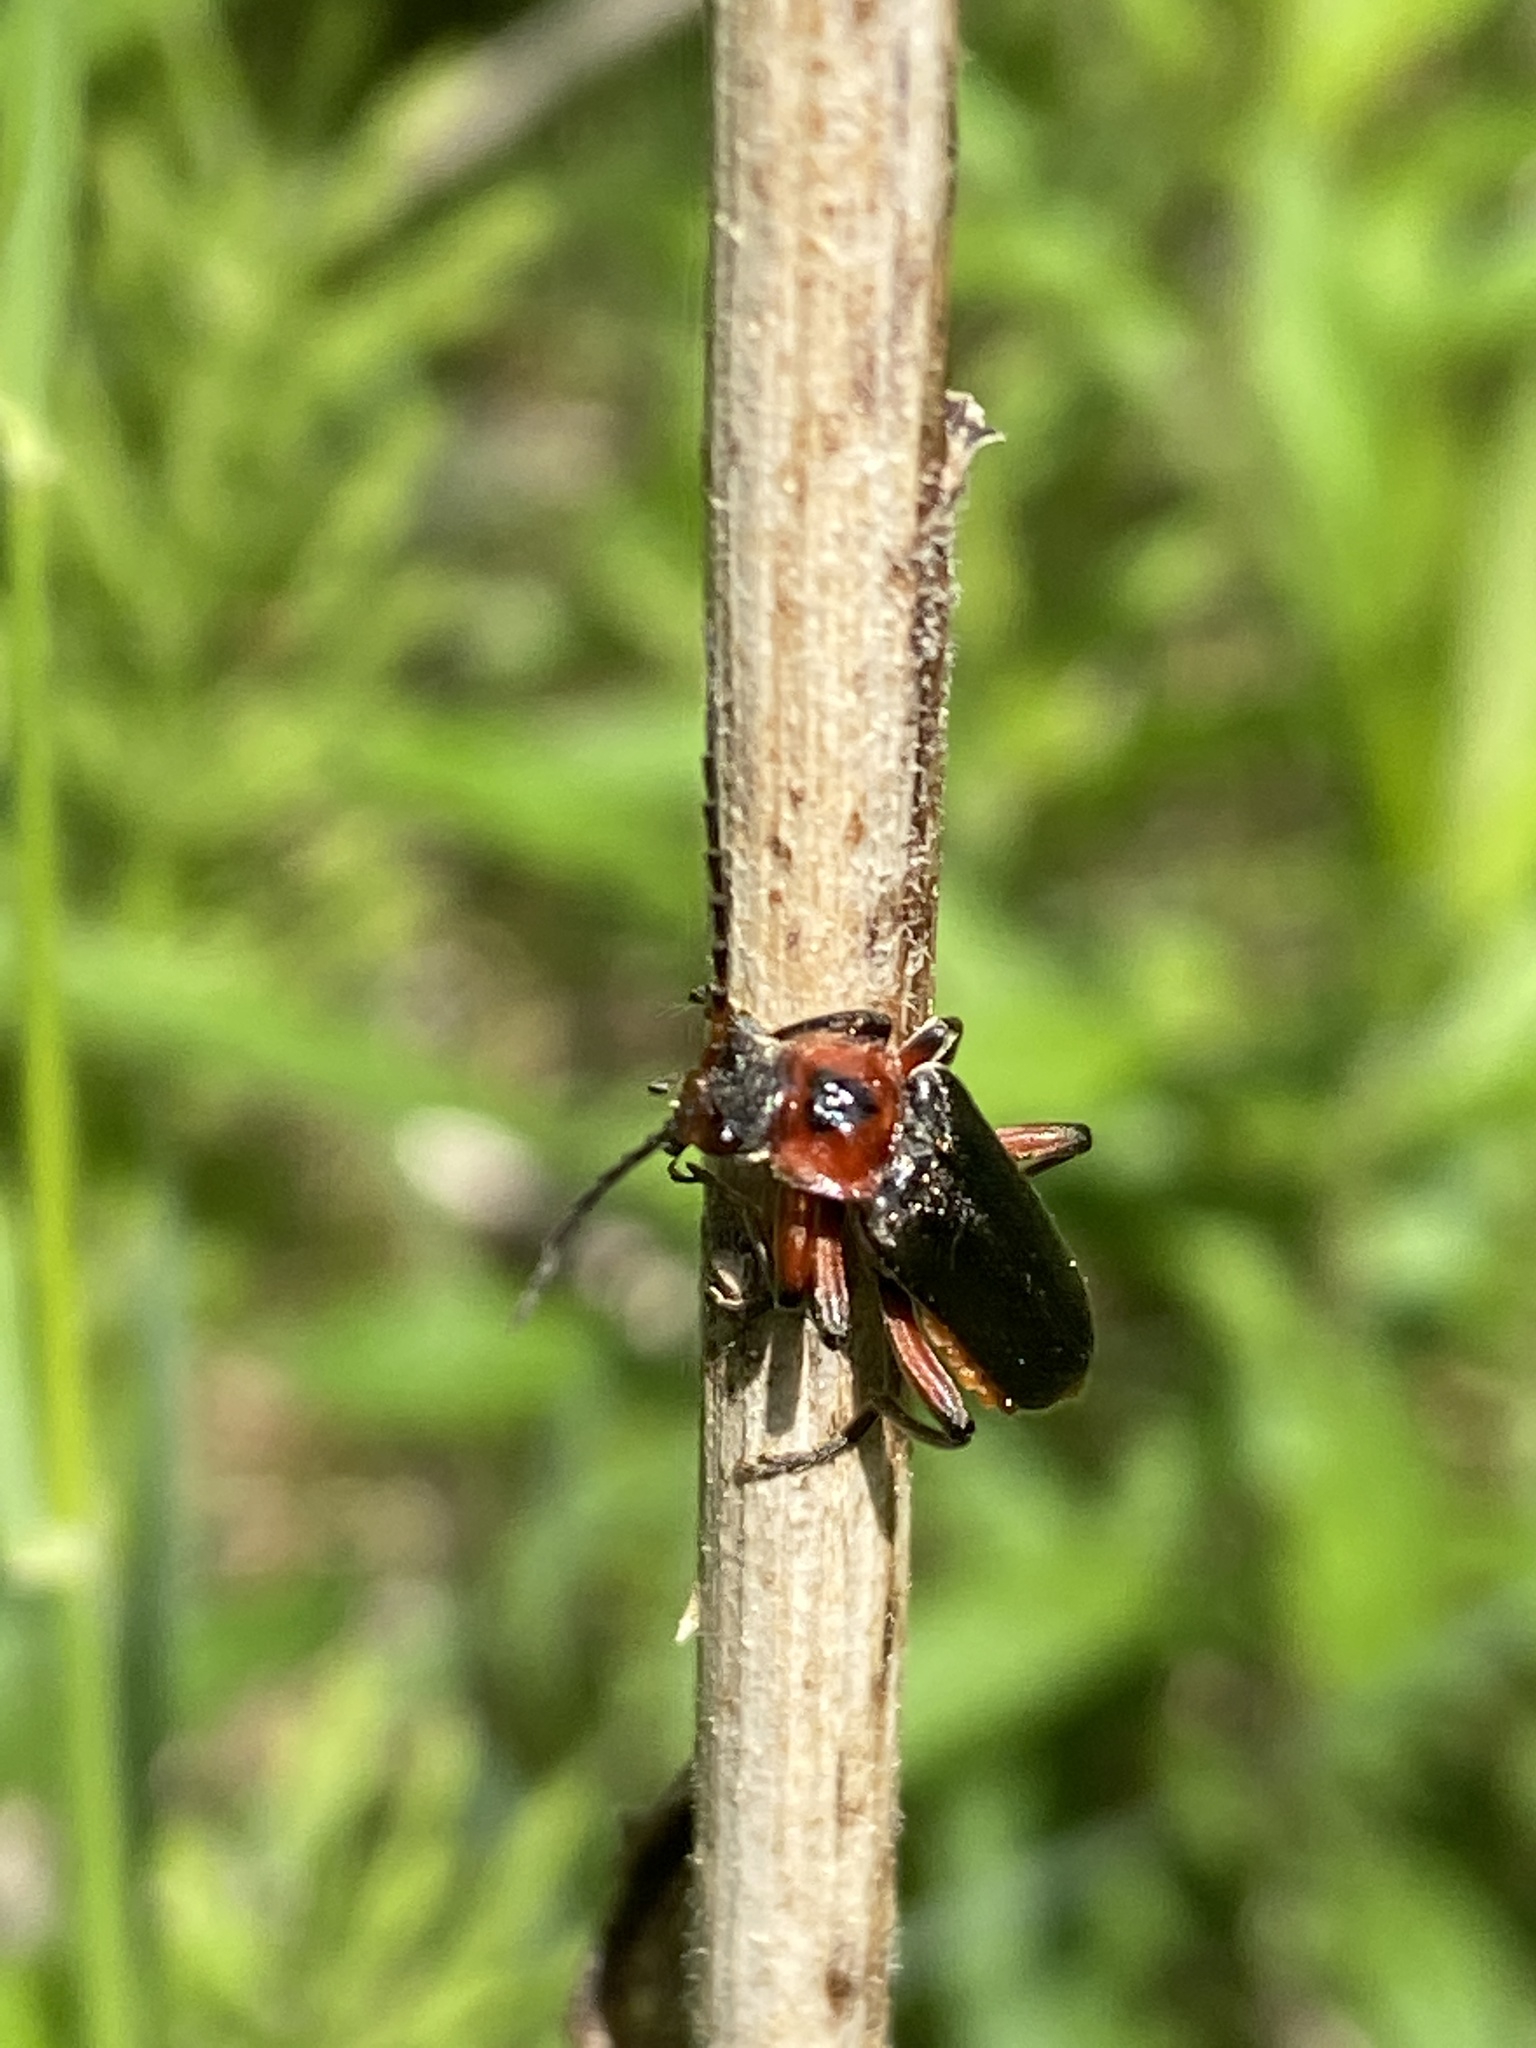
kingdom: Animalia
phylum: Arthropoda
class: Insecta
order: Coleoptera
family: Cantharidae
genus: Cantharis
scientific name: Cantharis rustica
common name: Soldier beetle
